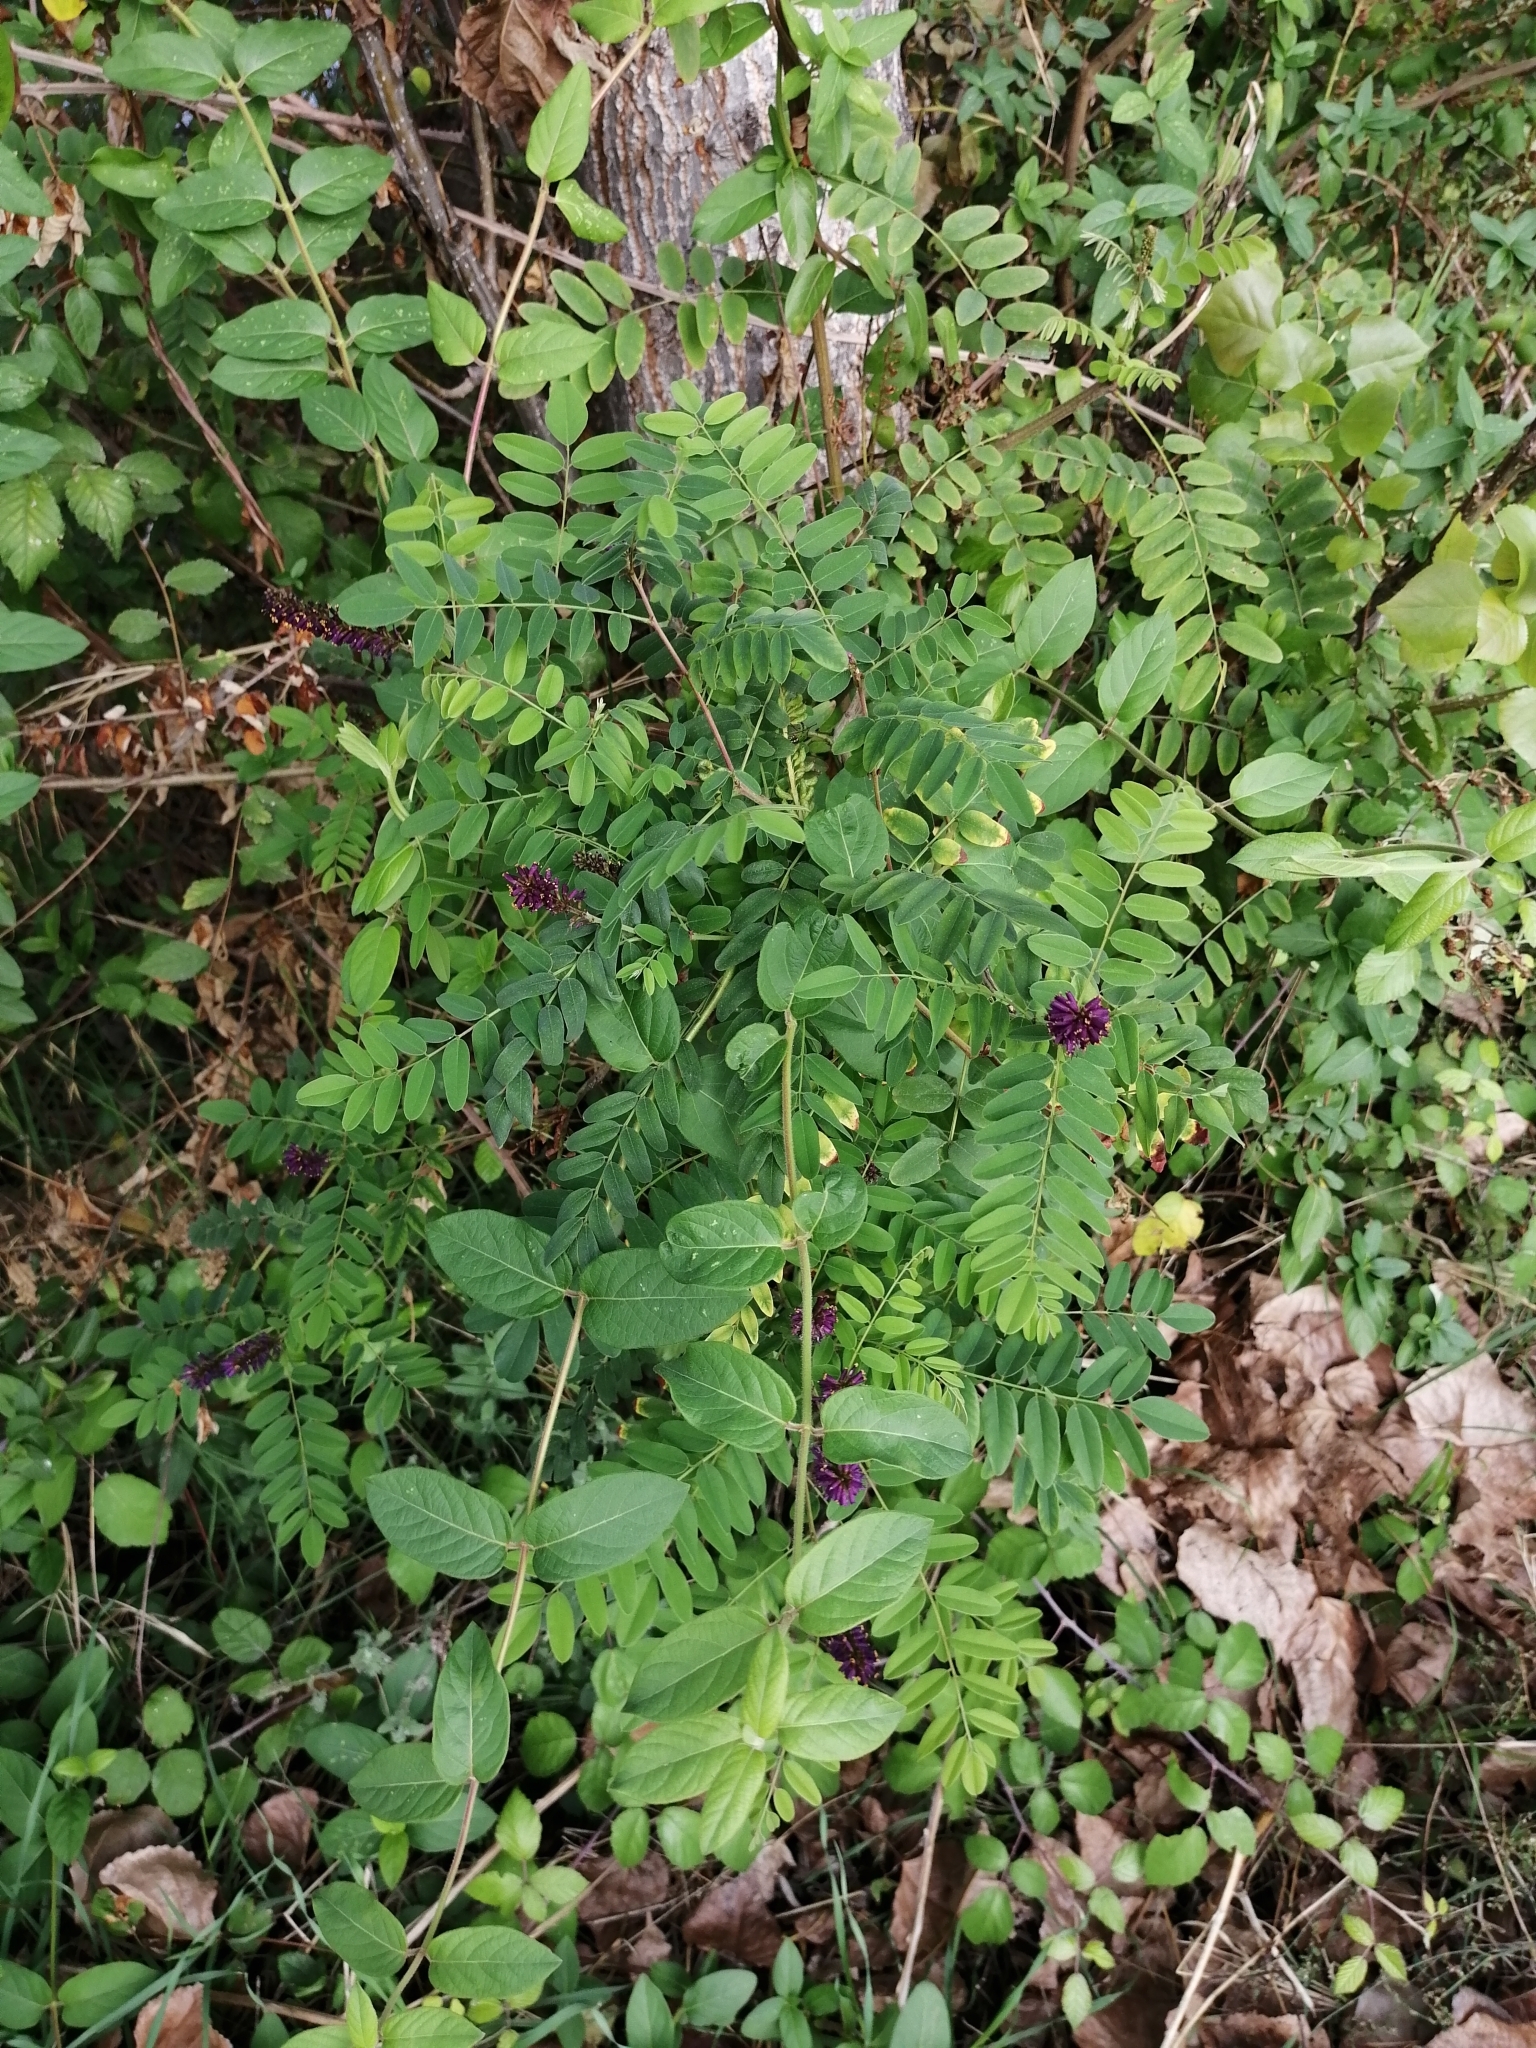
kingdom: Plantae
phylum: Tracheophyta
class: Magnoliopsida
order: Fabales
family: Fabaceae
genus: Amorpha
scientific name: Amorpha fruticosa
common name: False indigo
